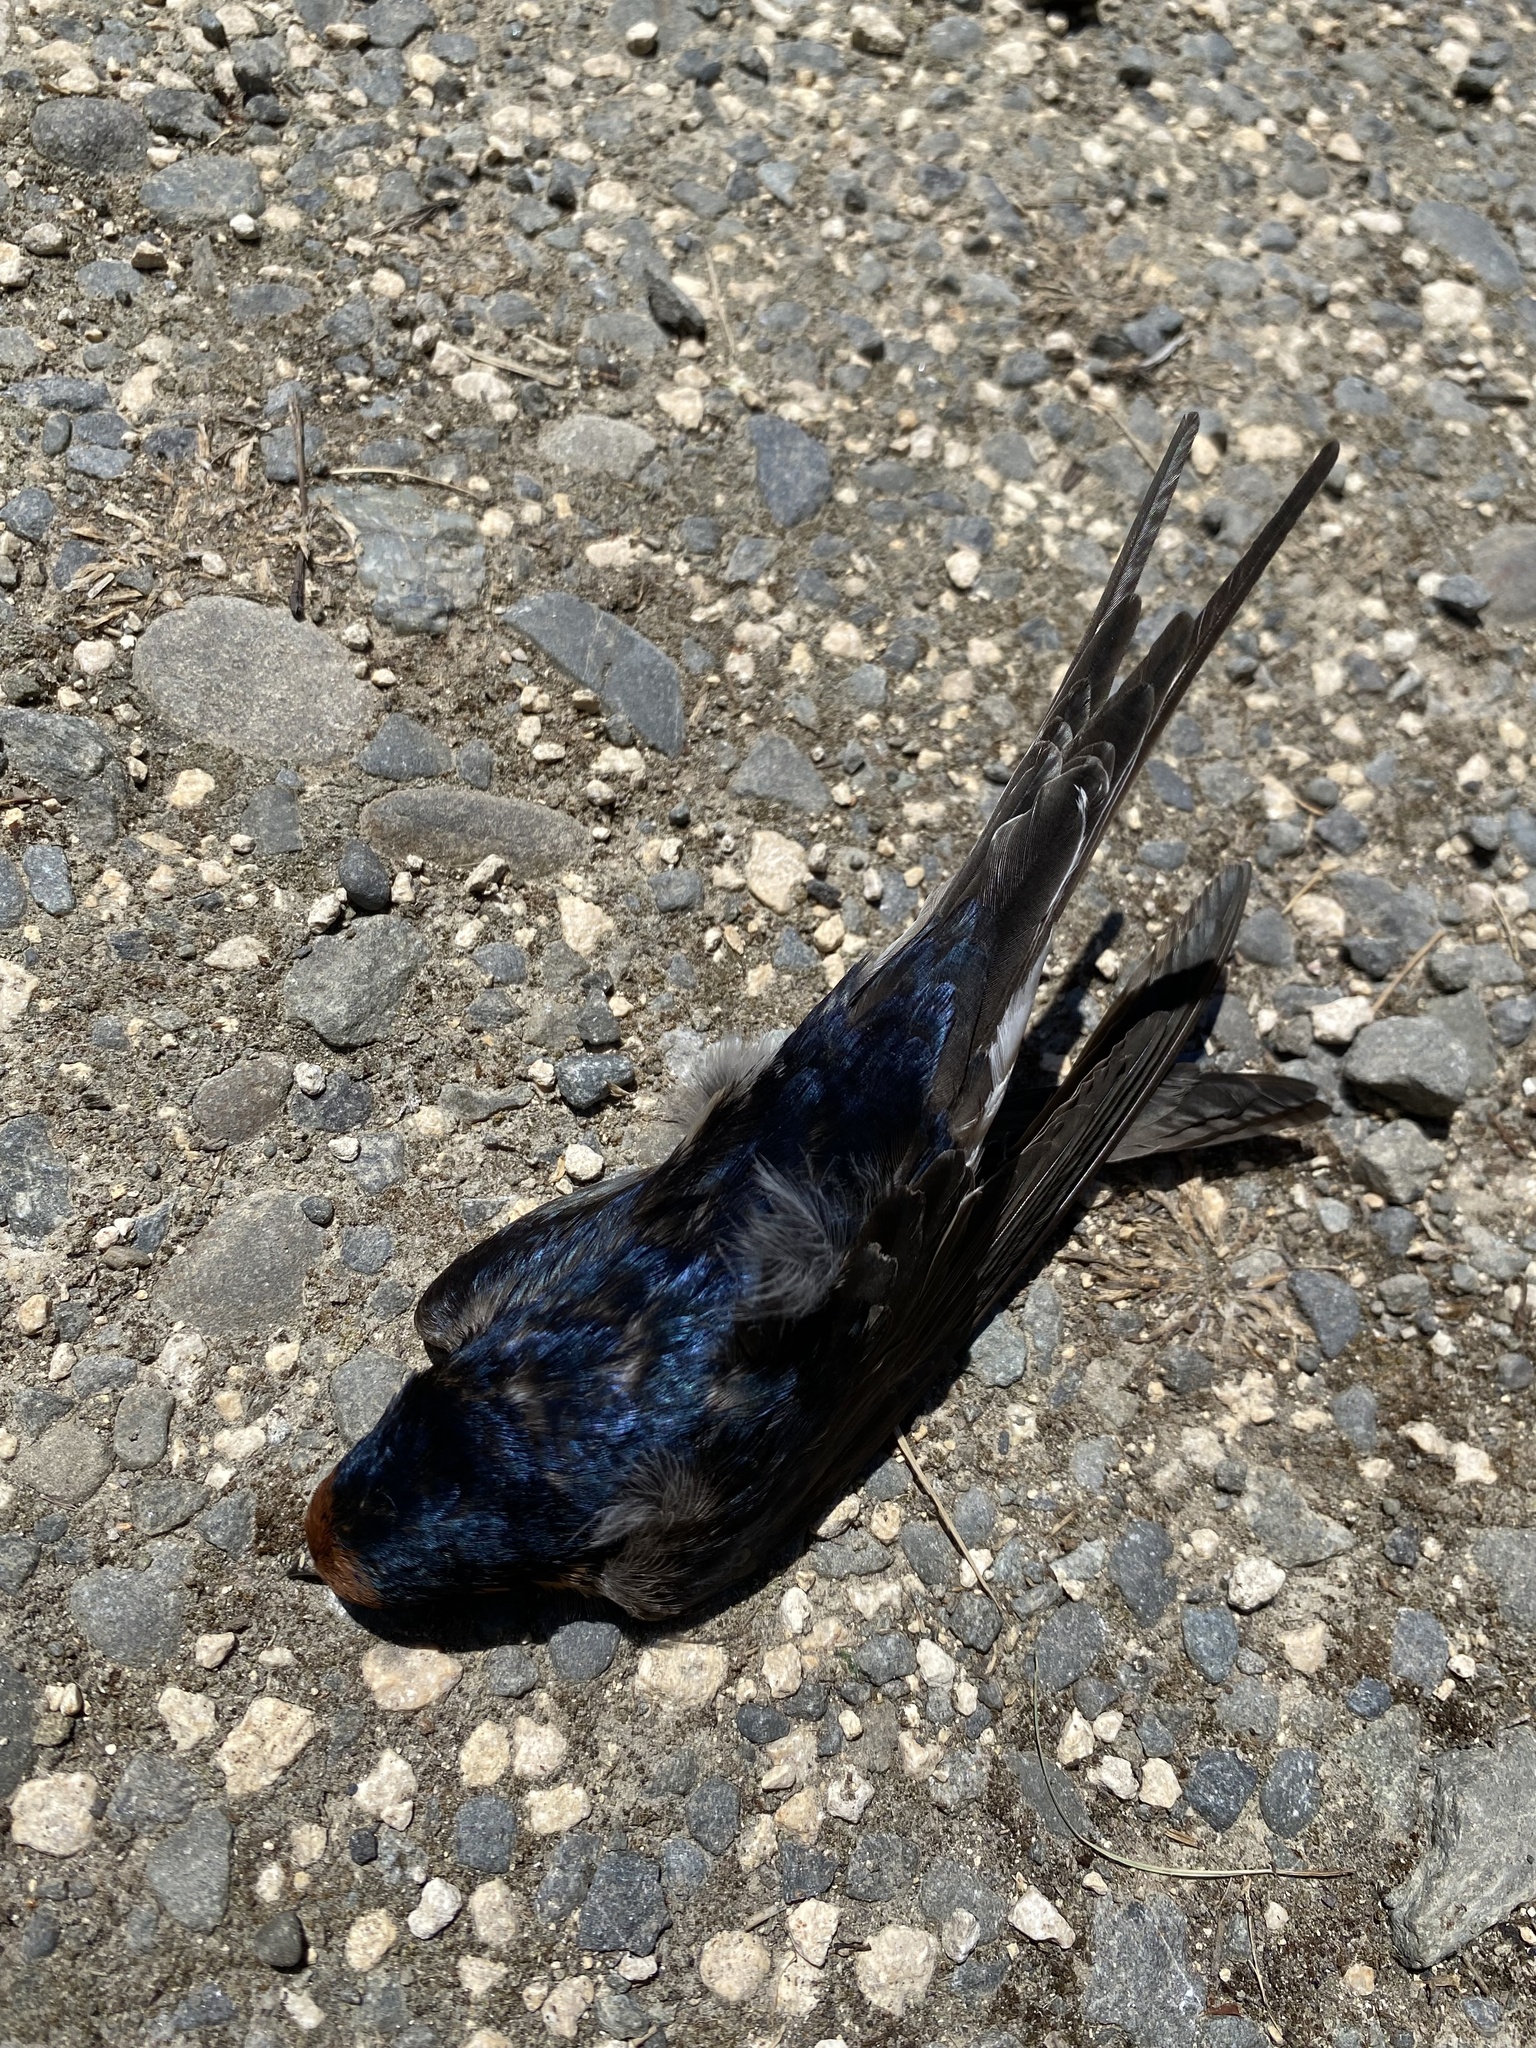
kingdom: Animalia
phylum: Chordata
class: Aves
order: Passeriformes
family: Hirundinidae
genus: Hirundo
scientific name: Hirundo neoxena
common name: Welcome swallow
